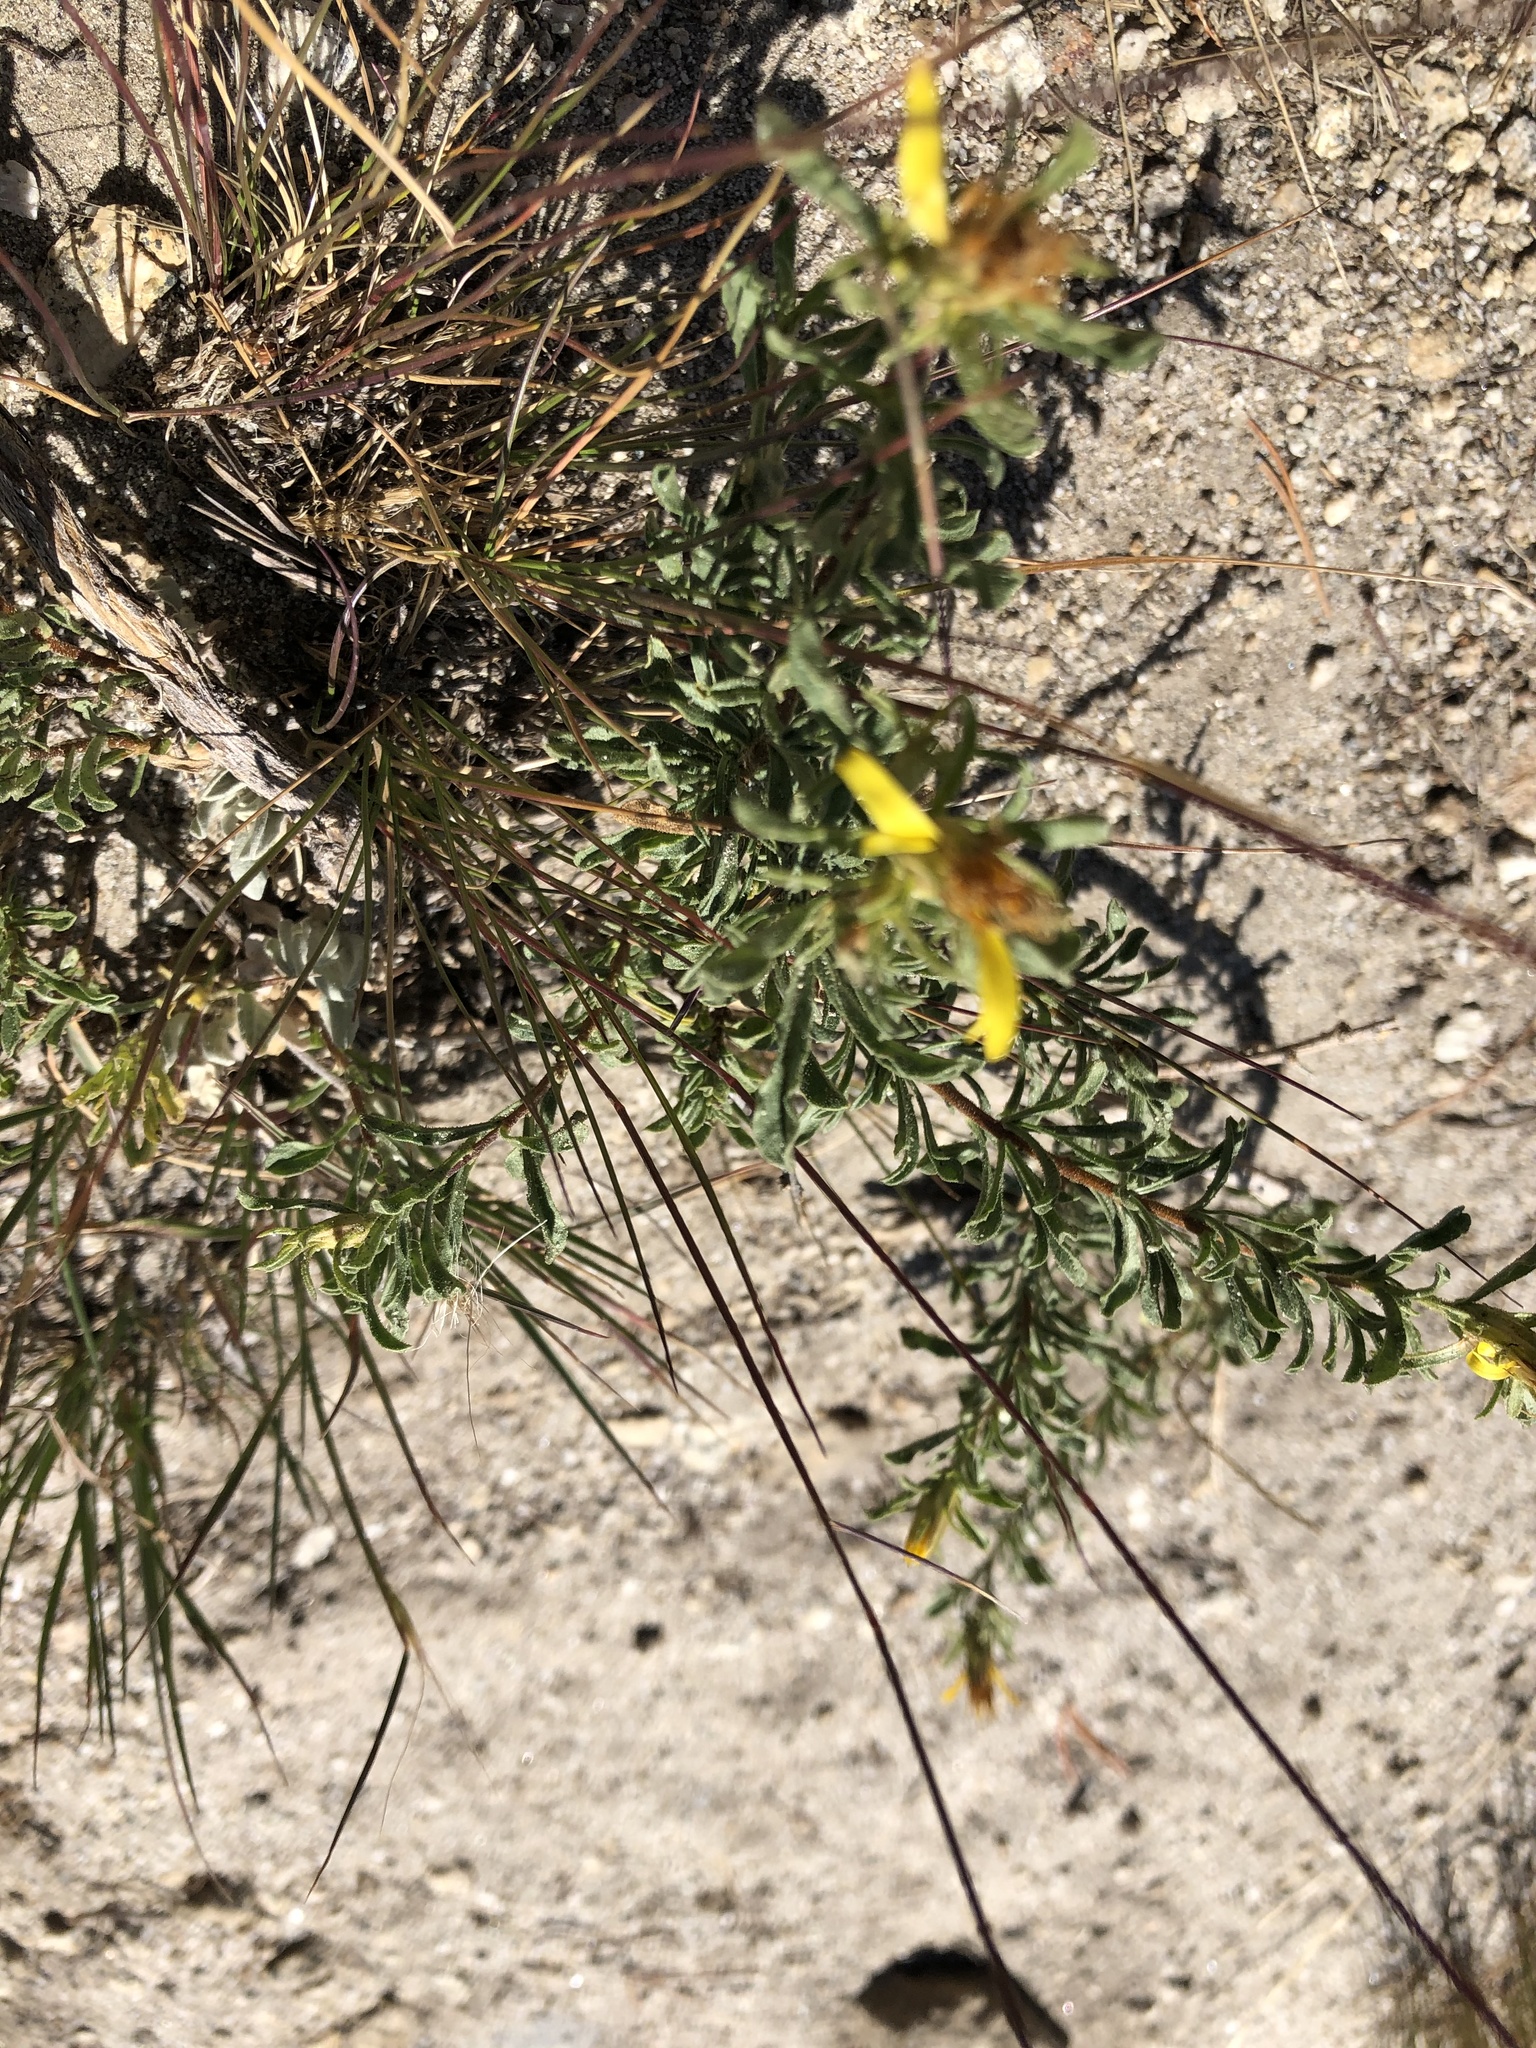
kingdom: Plantae
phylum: Tracheophyta
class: Magnoliopsida
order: Asterales
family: Asteraceae
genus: Ericameria
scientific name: Ericameria suffruticosa
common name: Goldenweed
